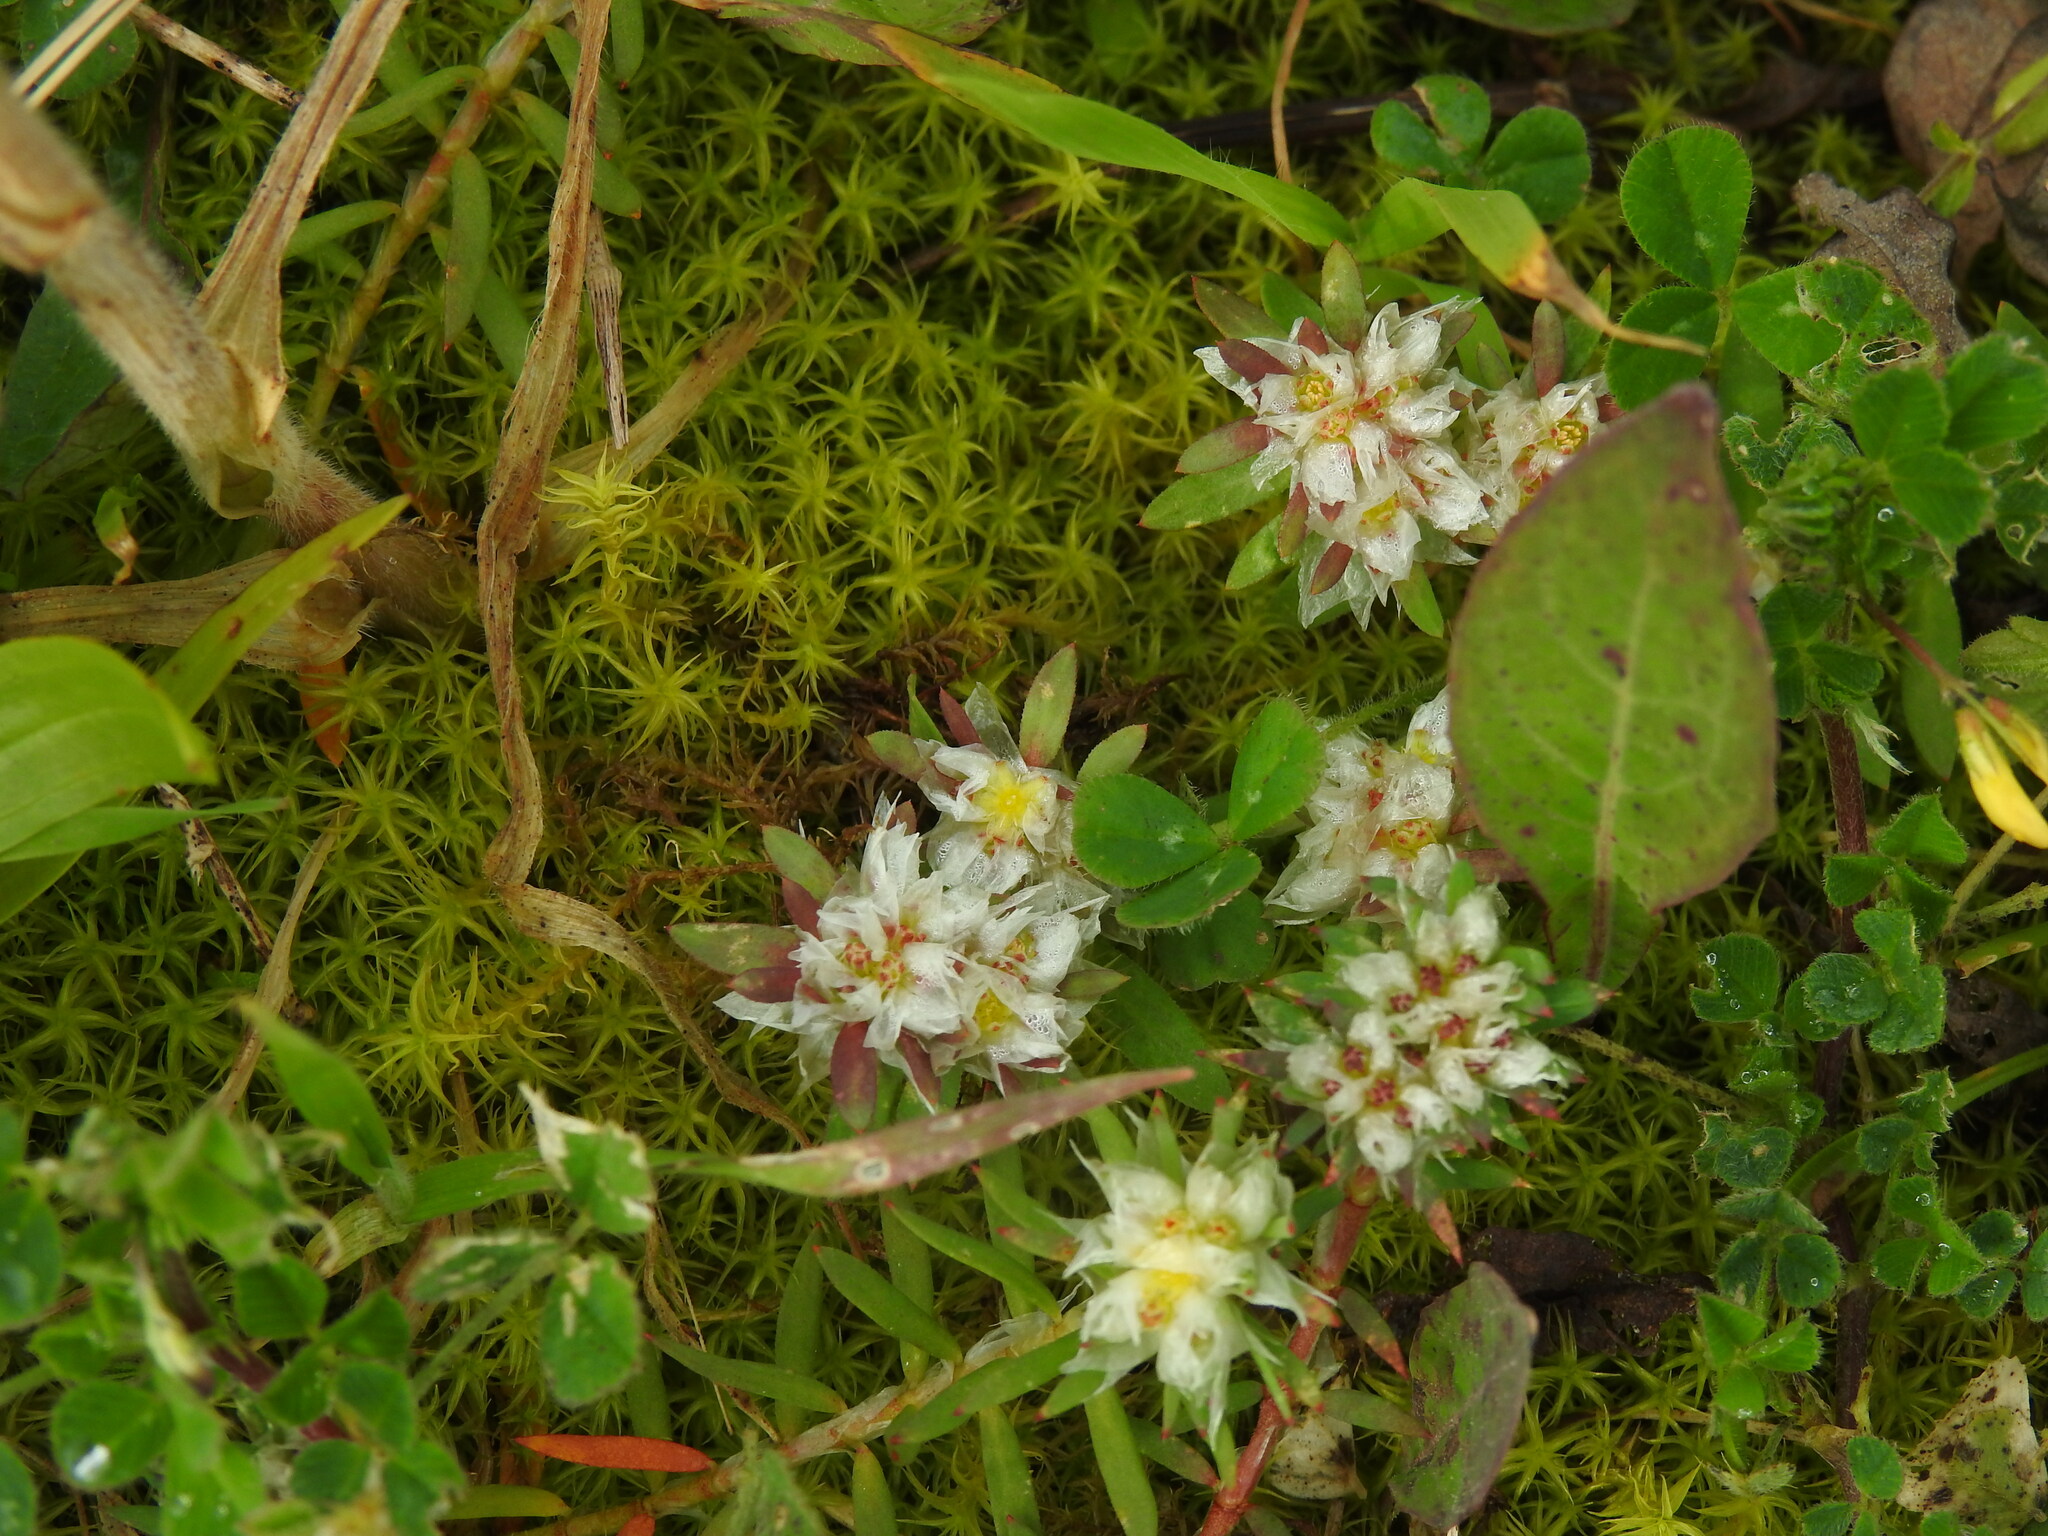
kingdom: Plantae
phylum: Tracheophyta
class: Magnoliopsida
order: Caryophyllales
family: Caryophyllaceae
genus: Paronychia
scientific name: Paronychia argentea
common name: Silver nailroot
